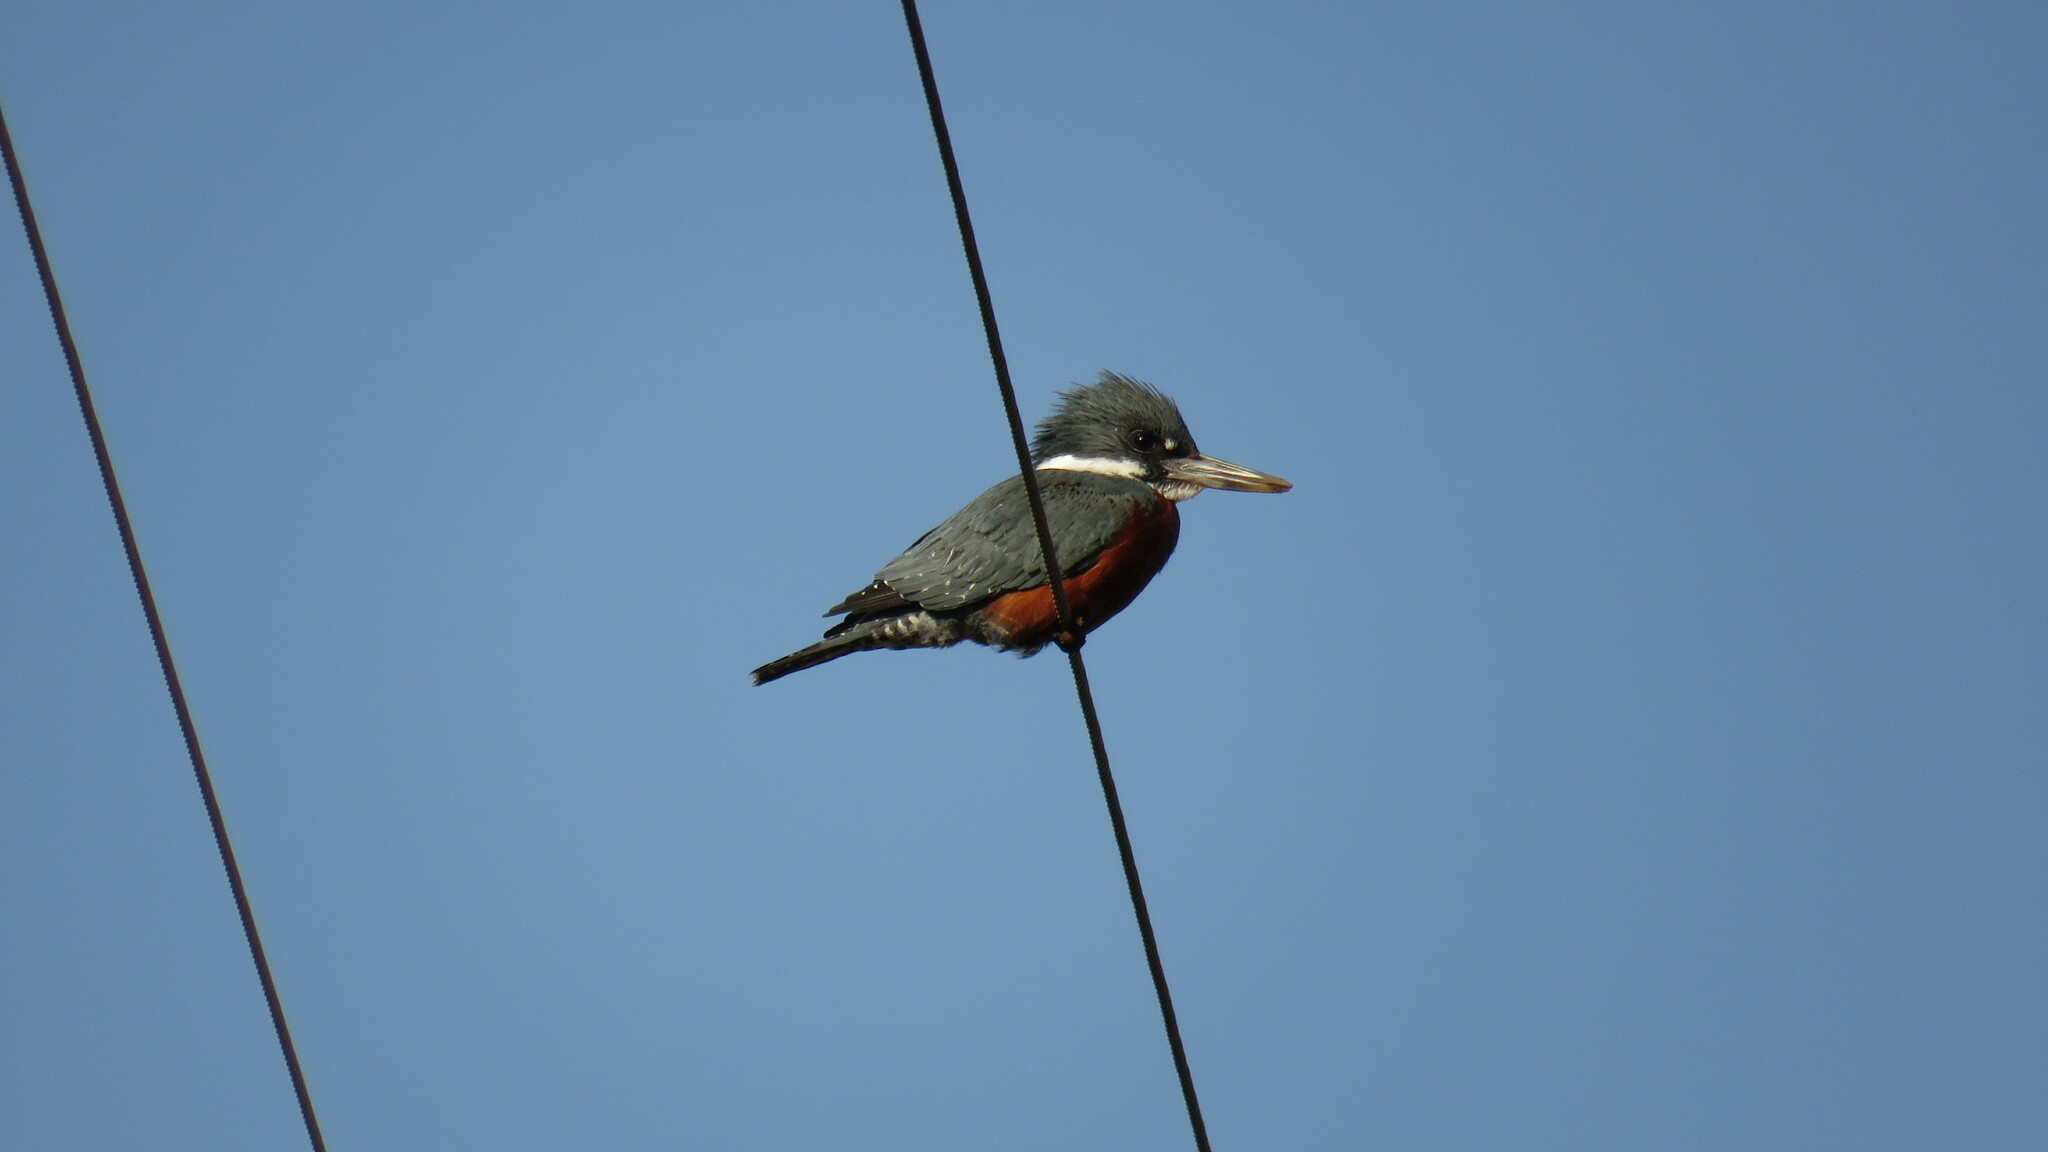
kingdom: Animalia
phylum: Chordata
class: Aves
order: Coraciiformes
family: Alcedinidae
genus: Megaceryle
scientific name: Megaceryle torquata
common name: Ringed kingfisher
